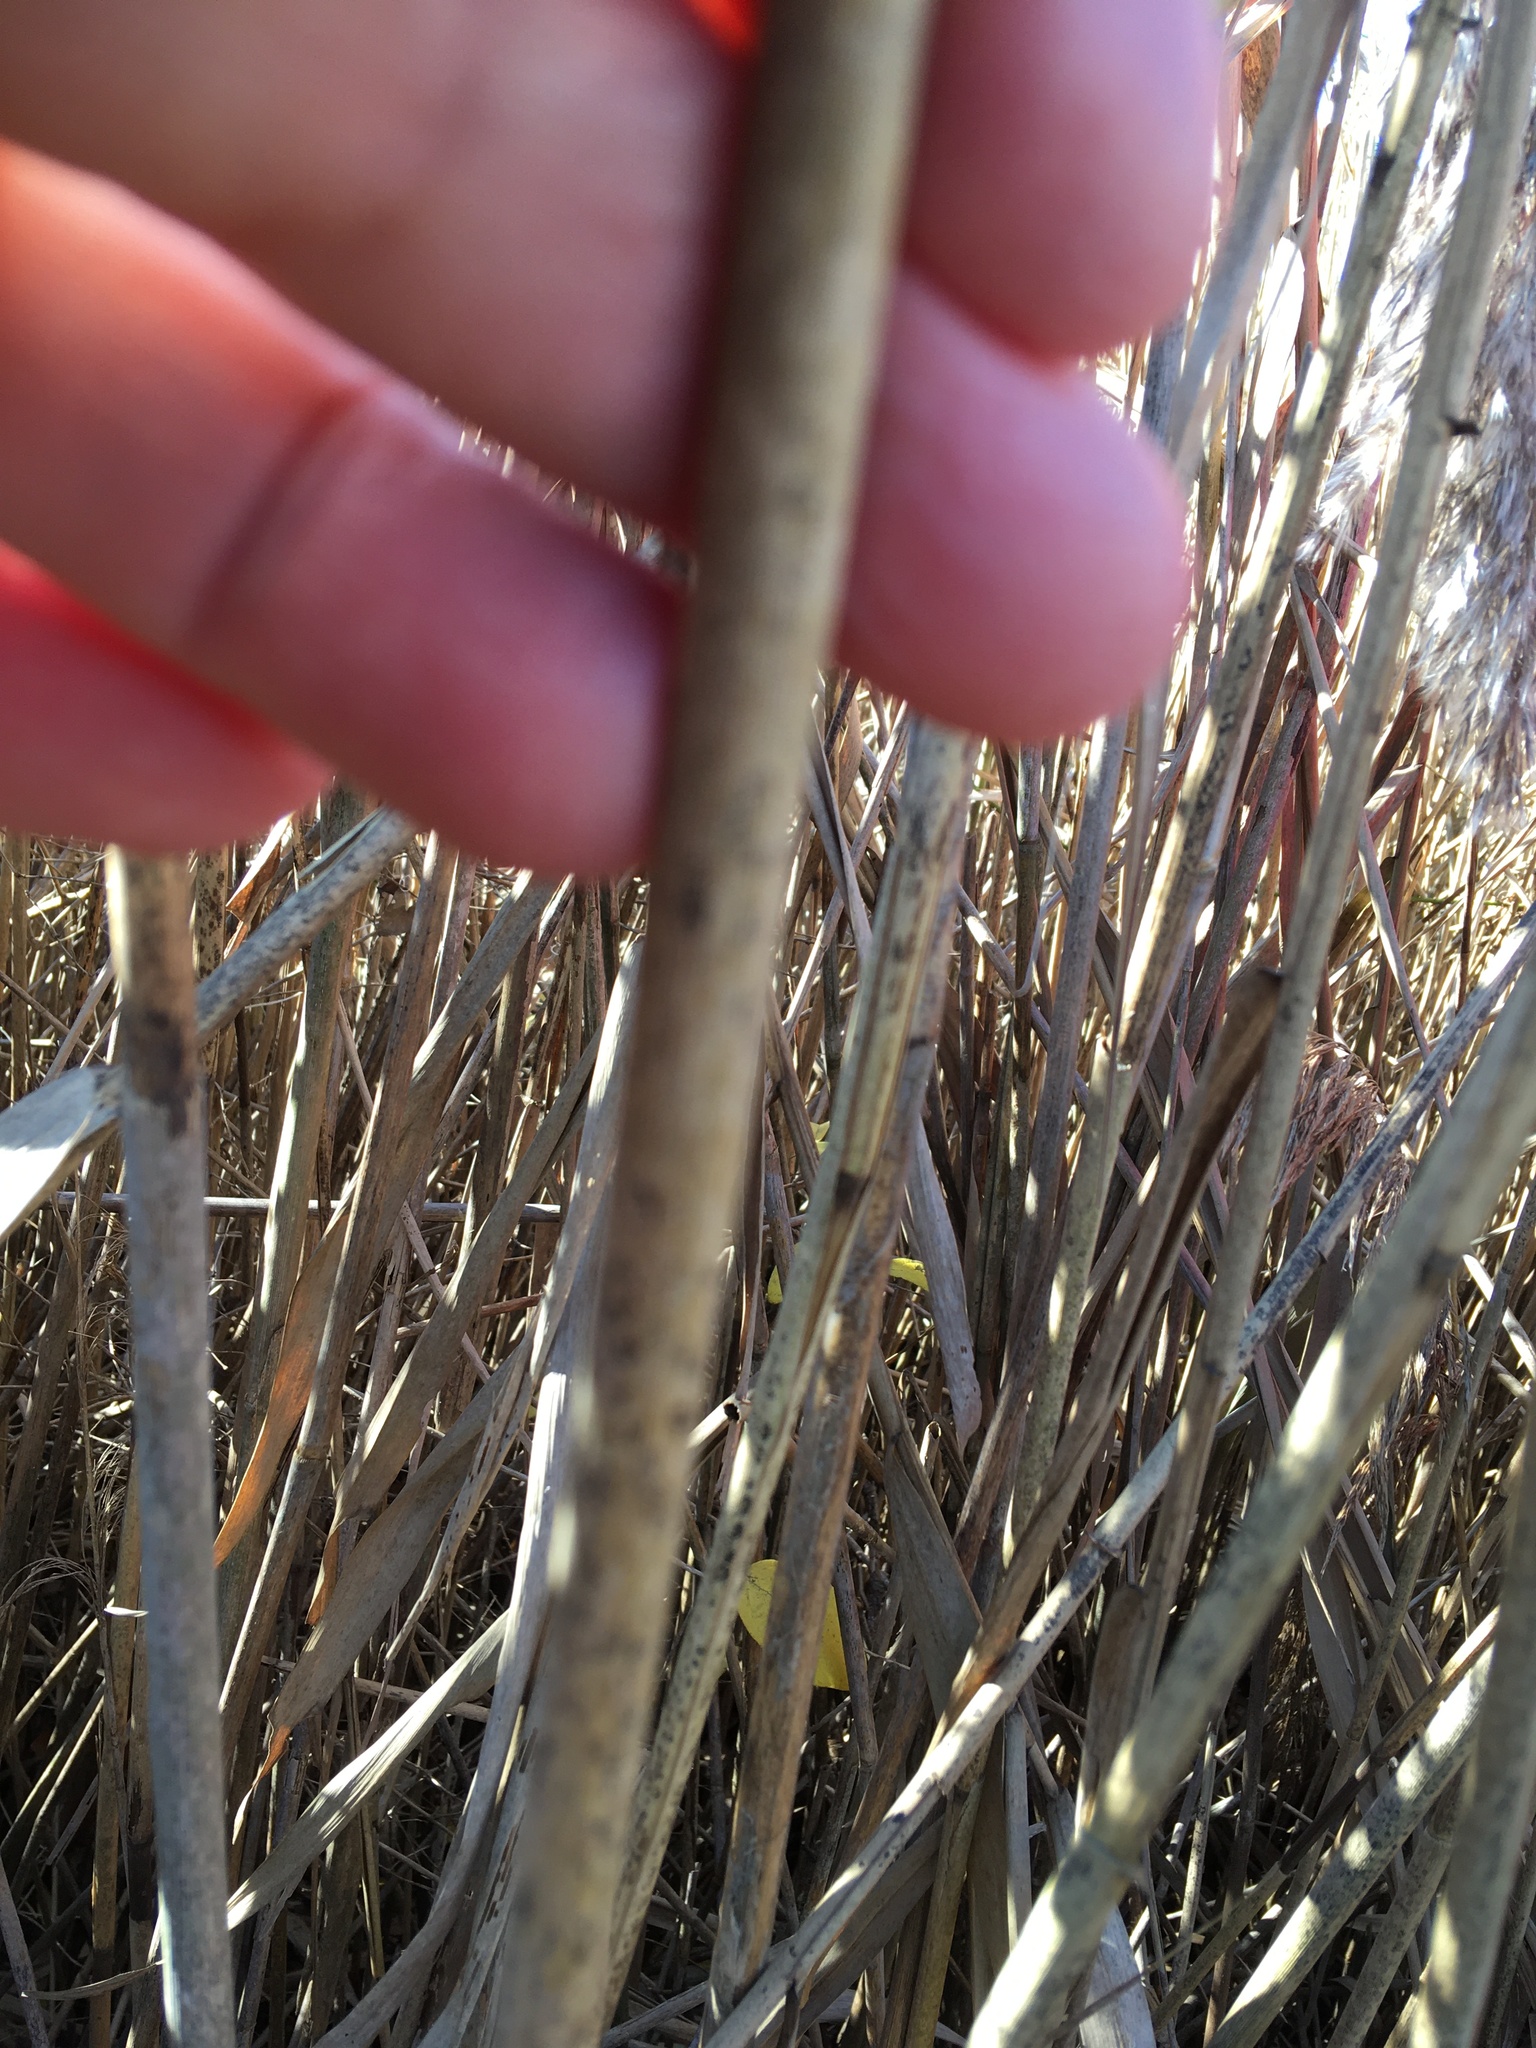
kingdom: Plantae
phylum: Tracheophyta
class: Liliopsida
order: Poales
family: Poaceae
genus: Phragmites
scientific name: Phragmites australis
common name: Common reed
